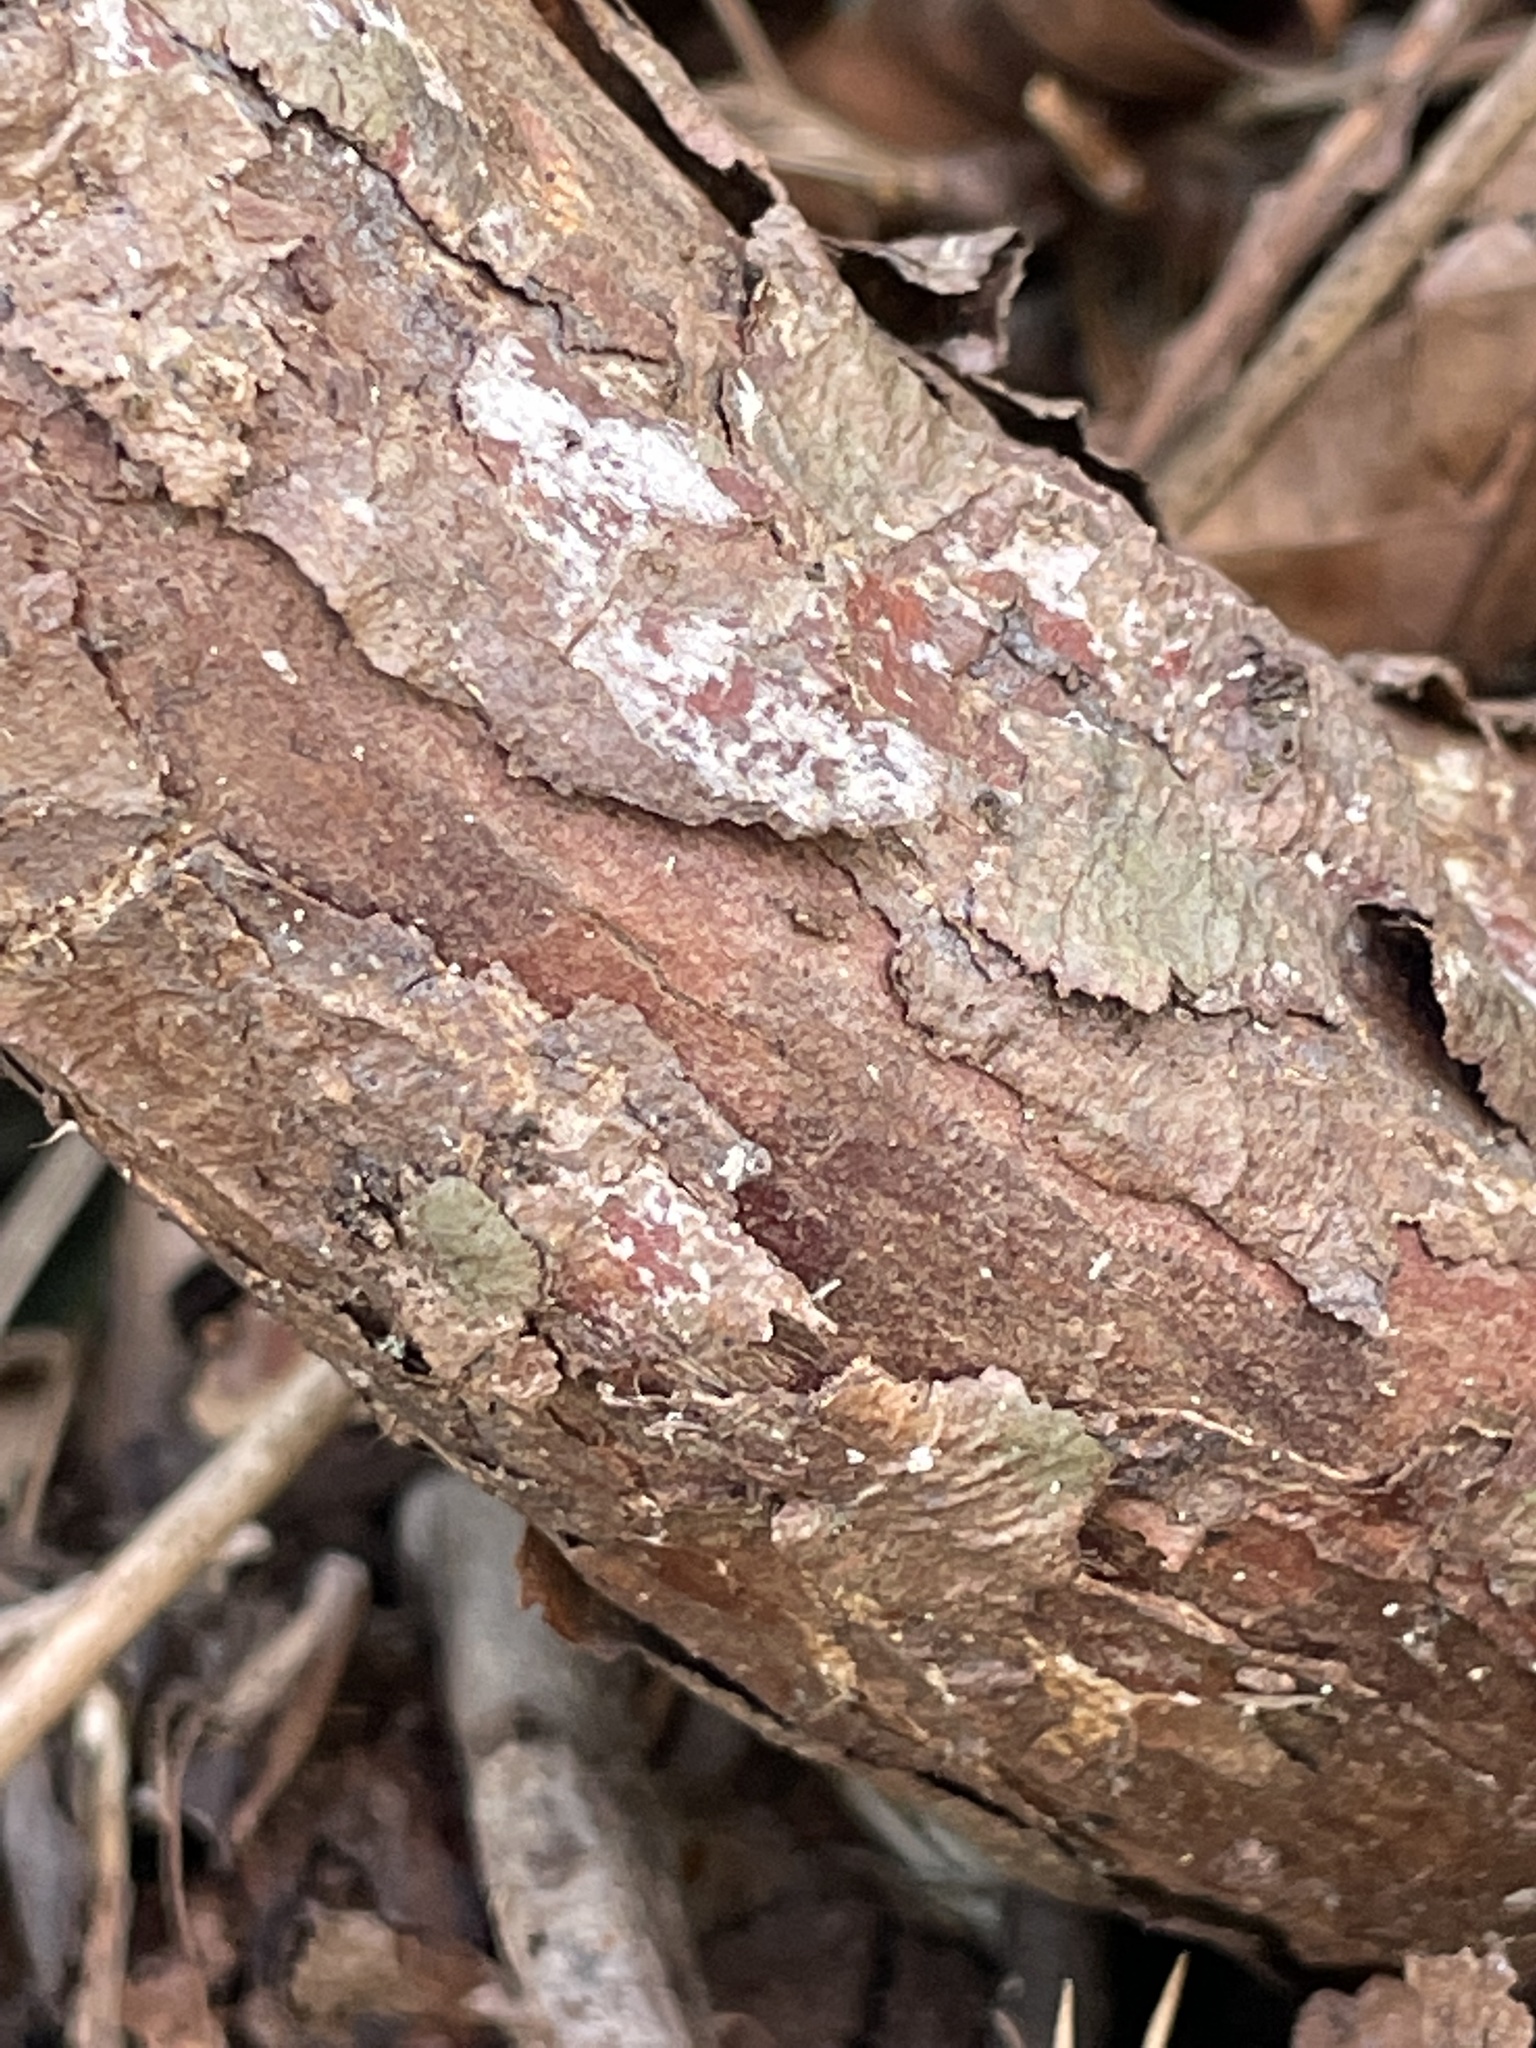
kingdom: Plantae
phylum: Tracheophyta
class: Pinopsida
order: Pinales
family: Cupressaceae
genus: Juniperus
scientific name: Juniperus virginiana
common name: Red juniper
